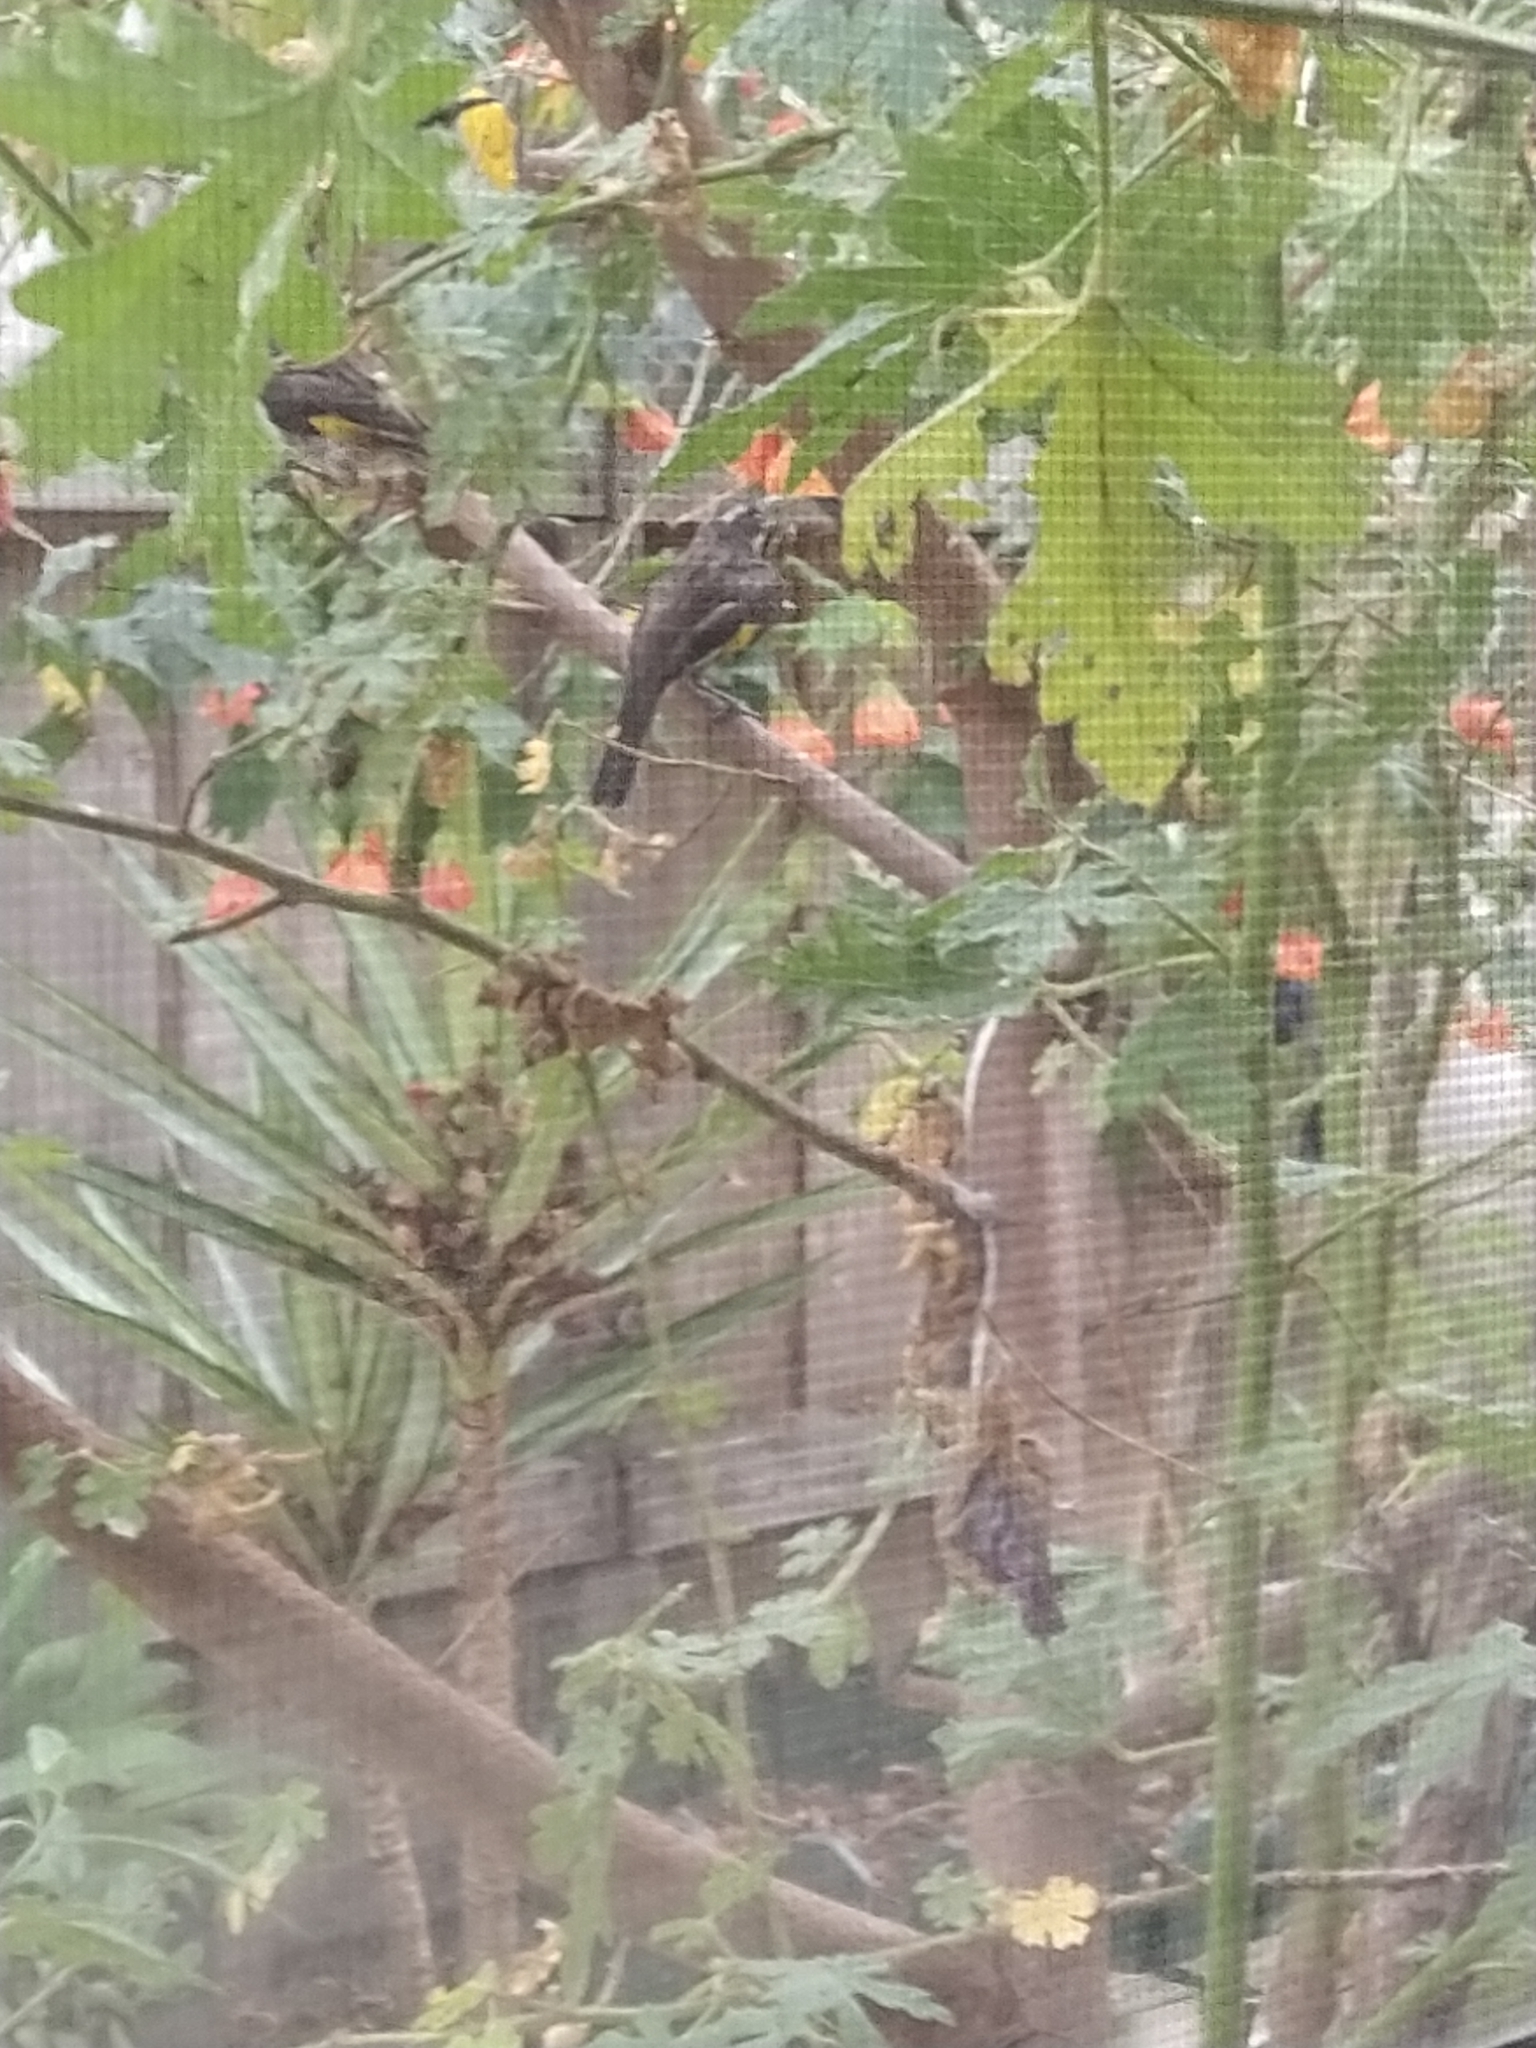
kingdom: Animalia
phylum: Chordata
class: Aves
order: Passeriformes
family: Meliphagidae
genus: Phylidonyris
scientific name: Phylidonyris novaehollandiae
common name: New holland honeyeater
